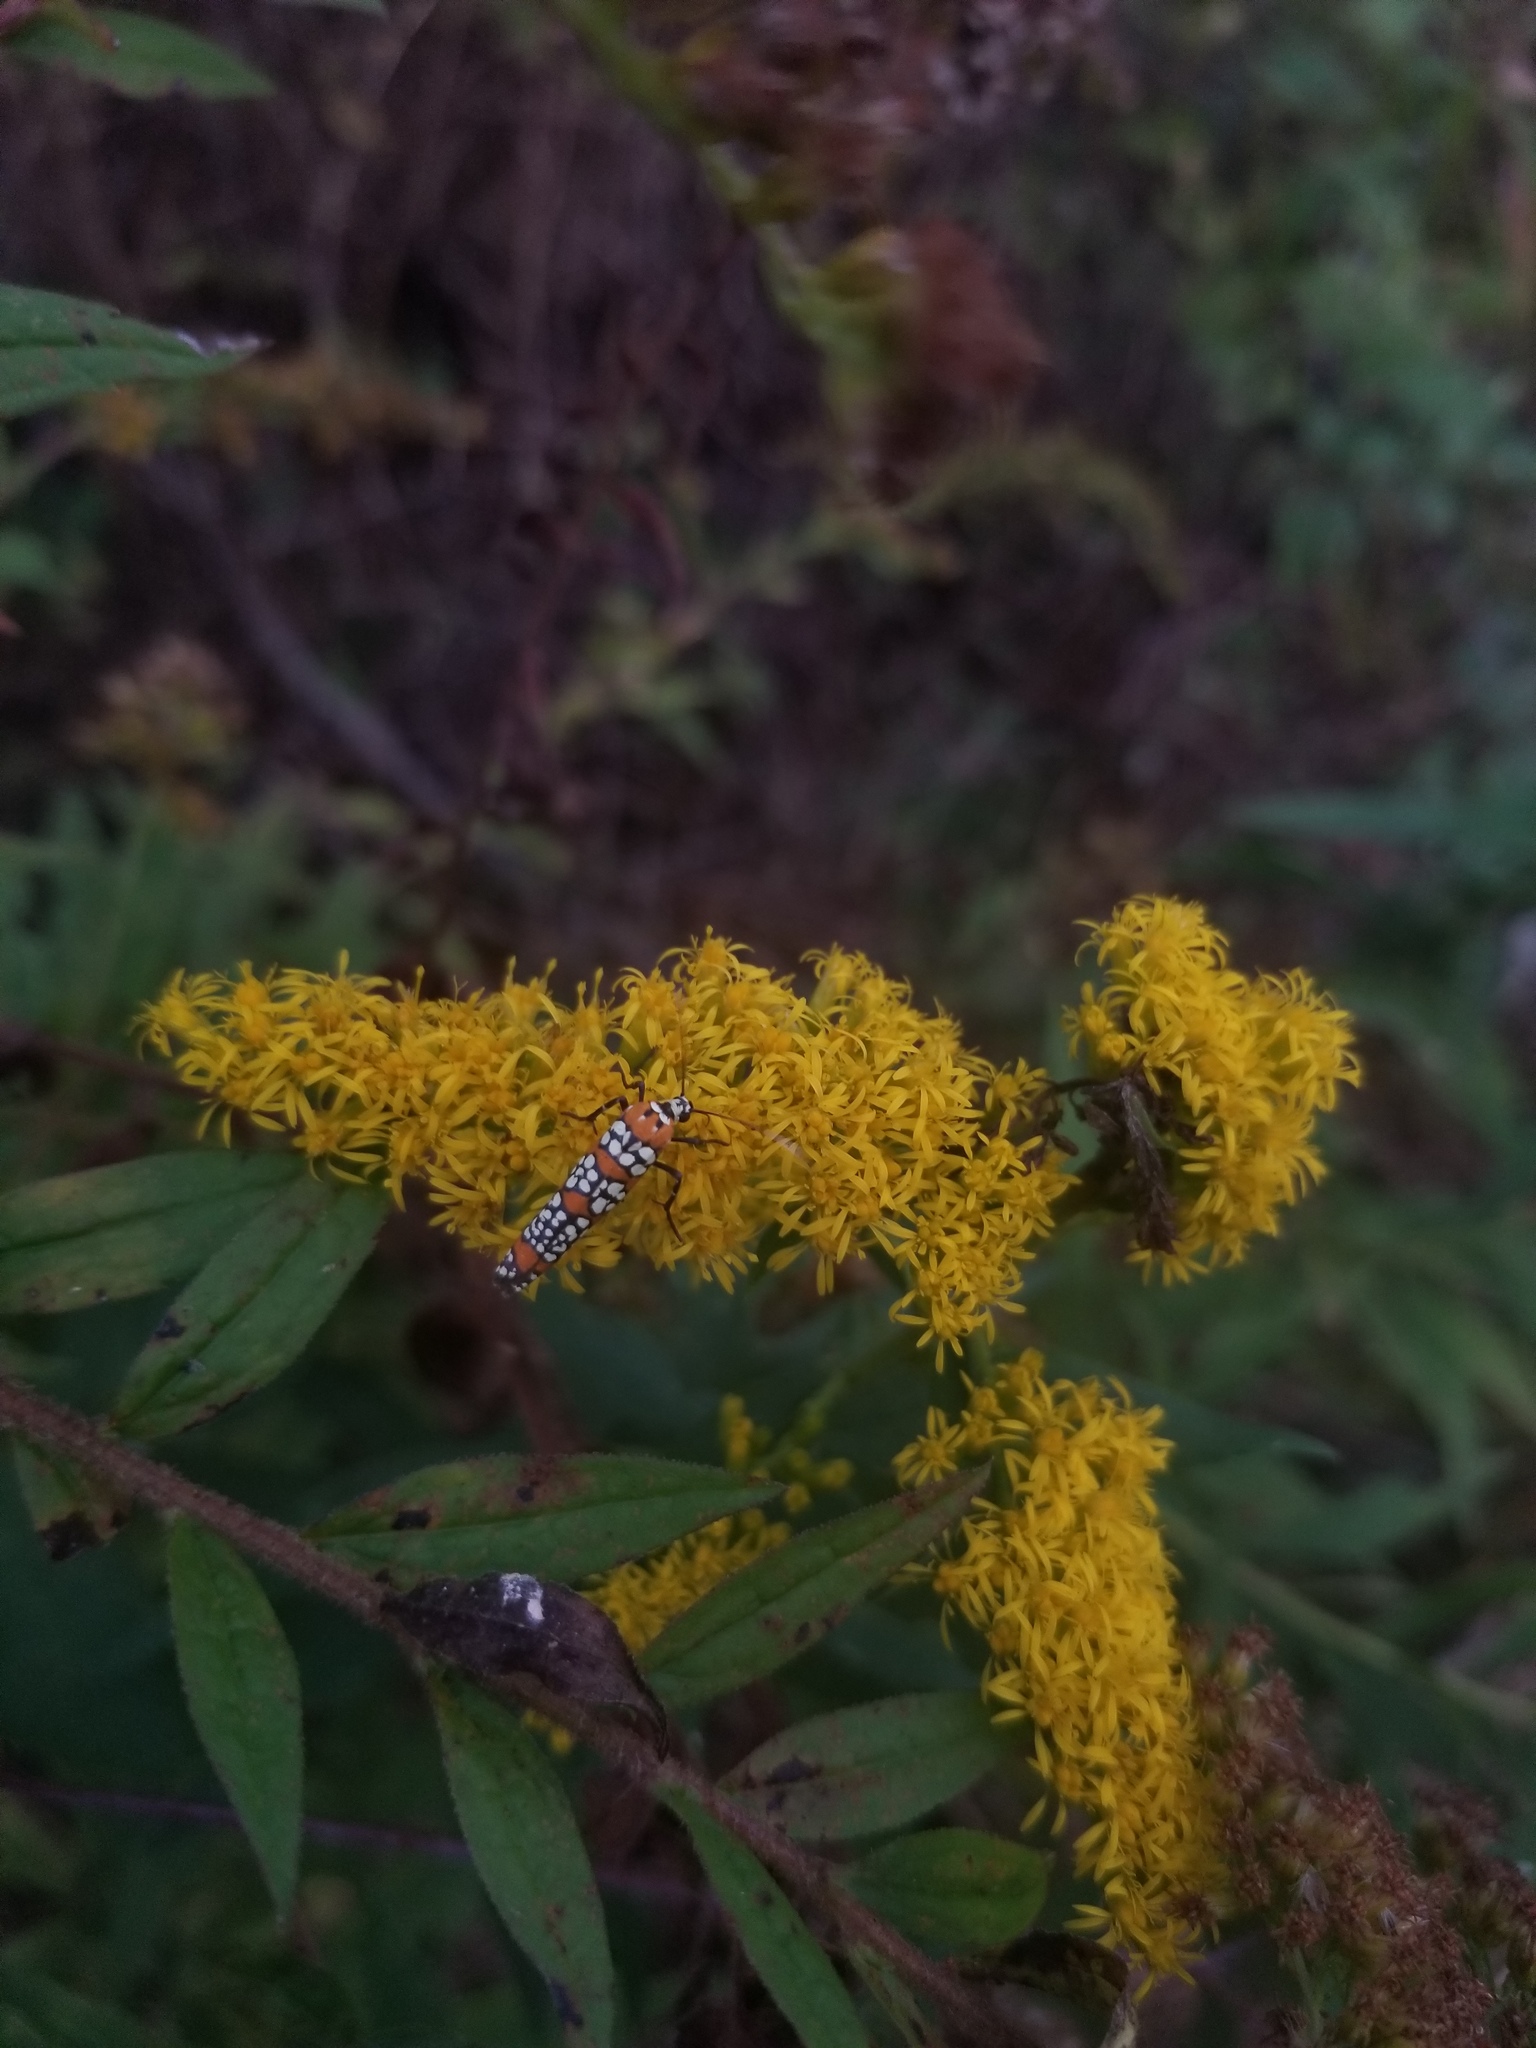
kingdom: Animalia
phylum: Arthropoda
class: Insecta
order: Lepidoptera
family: Attevidae
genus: Atteva
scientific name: Atteva punctella
